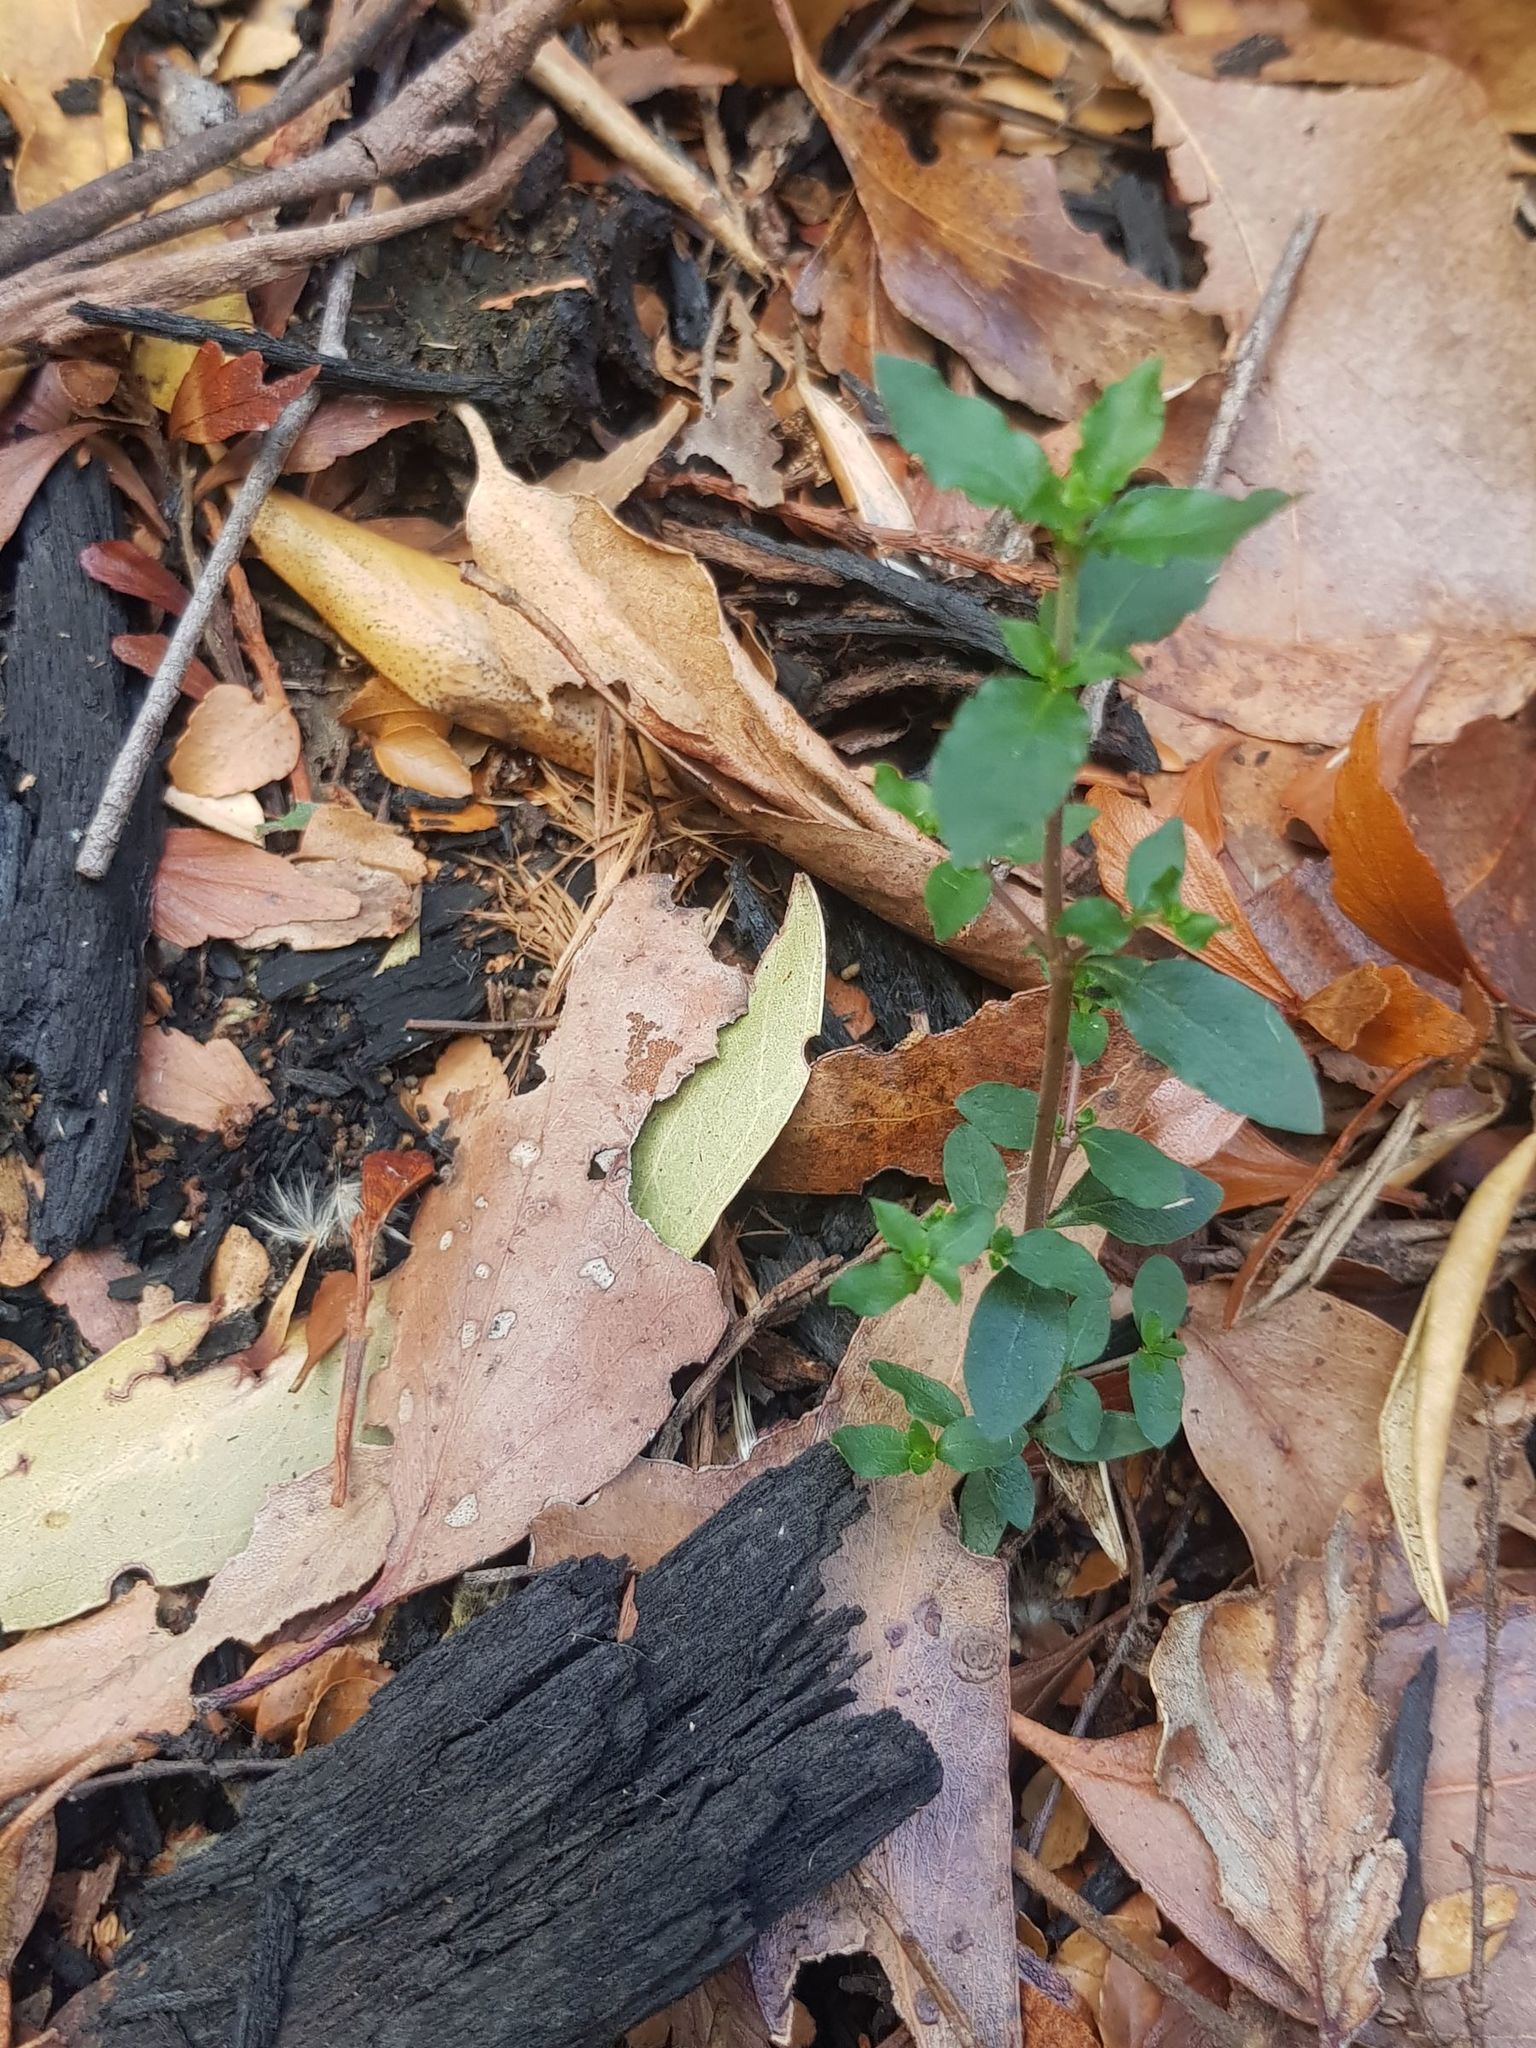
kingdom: Plantae
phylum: Tracheophyta
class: Magnoliopsida
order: Gentianales
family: Rubiaceae
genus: Coprosma
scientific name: Coprosma quadrifida
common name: Prickly currantbush
